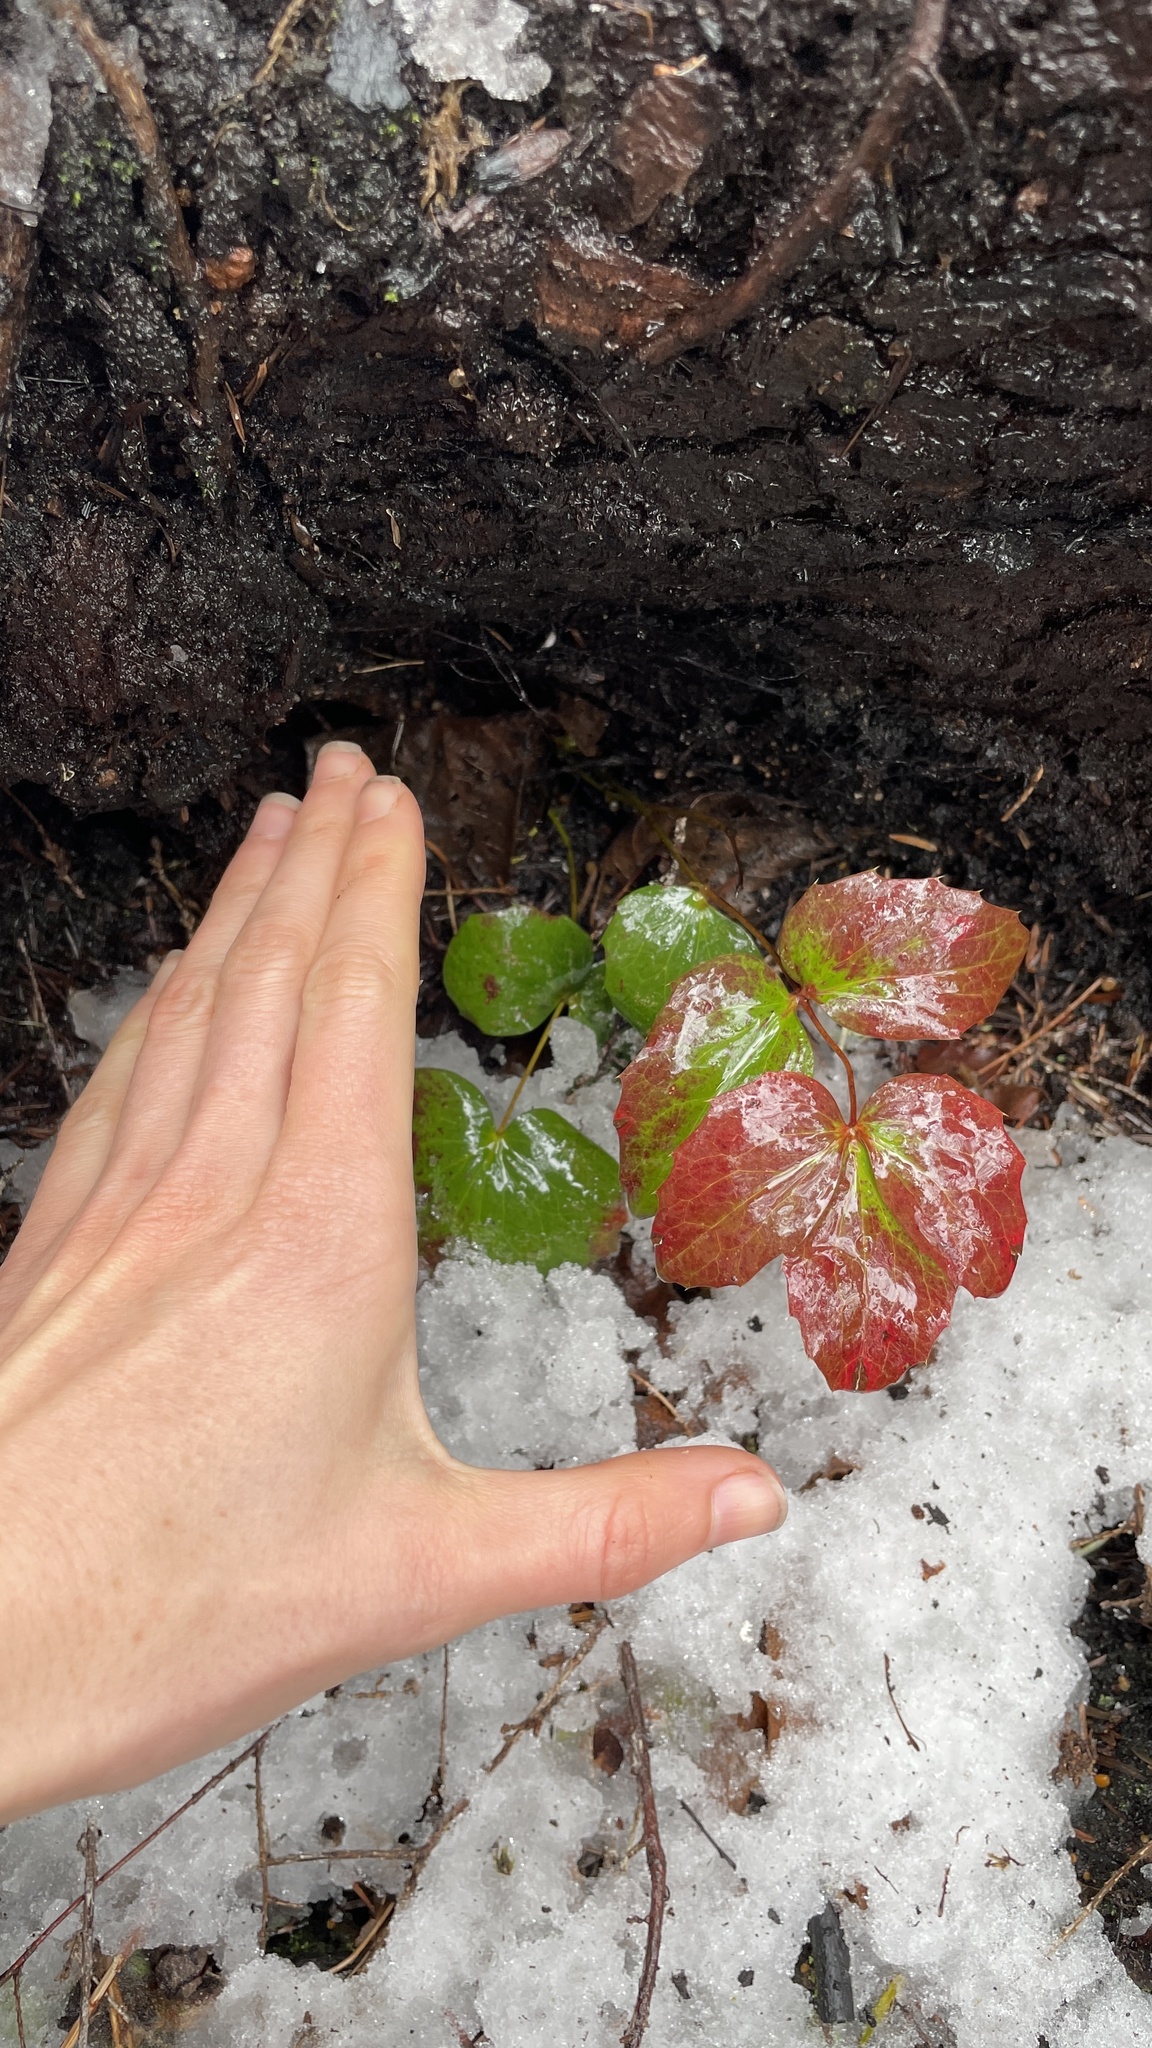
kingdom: Plantae
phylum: Tracheophyta
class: Magnoliopsida
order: Ranunculales
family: Berberidaceae
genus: Mahonia
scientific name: Mahonia nervosa
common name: Cascade oregon-grape
